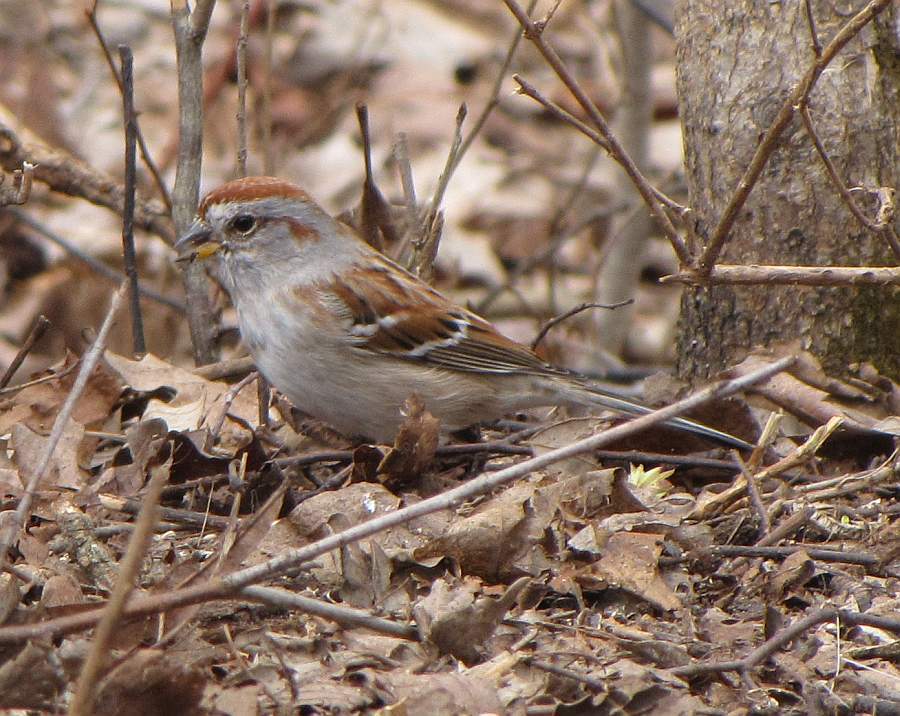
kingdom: Animalia
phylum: Chordata
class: Aves
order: Passeriformes
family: Passerellidae
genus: Spizelloides
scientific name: Spizelloides arborea
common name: American tree sparrow
